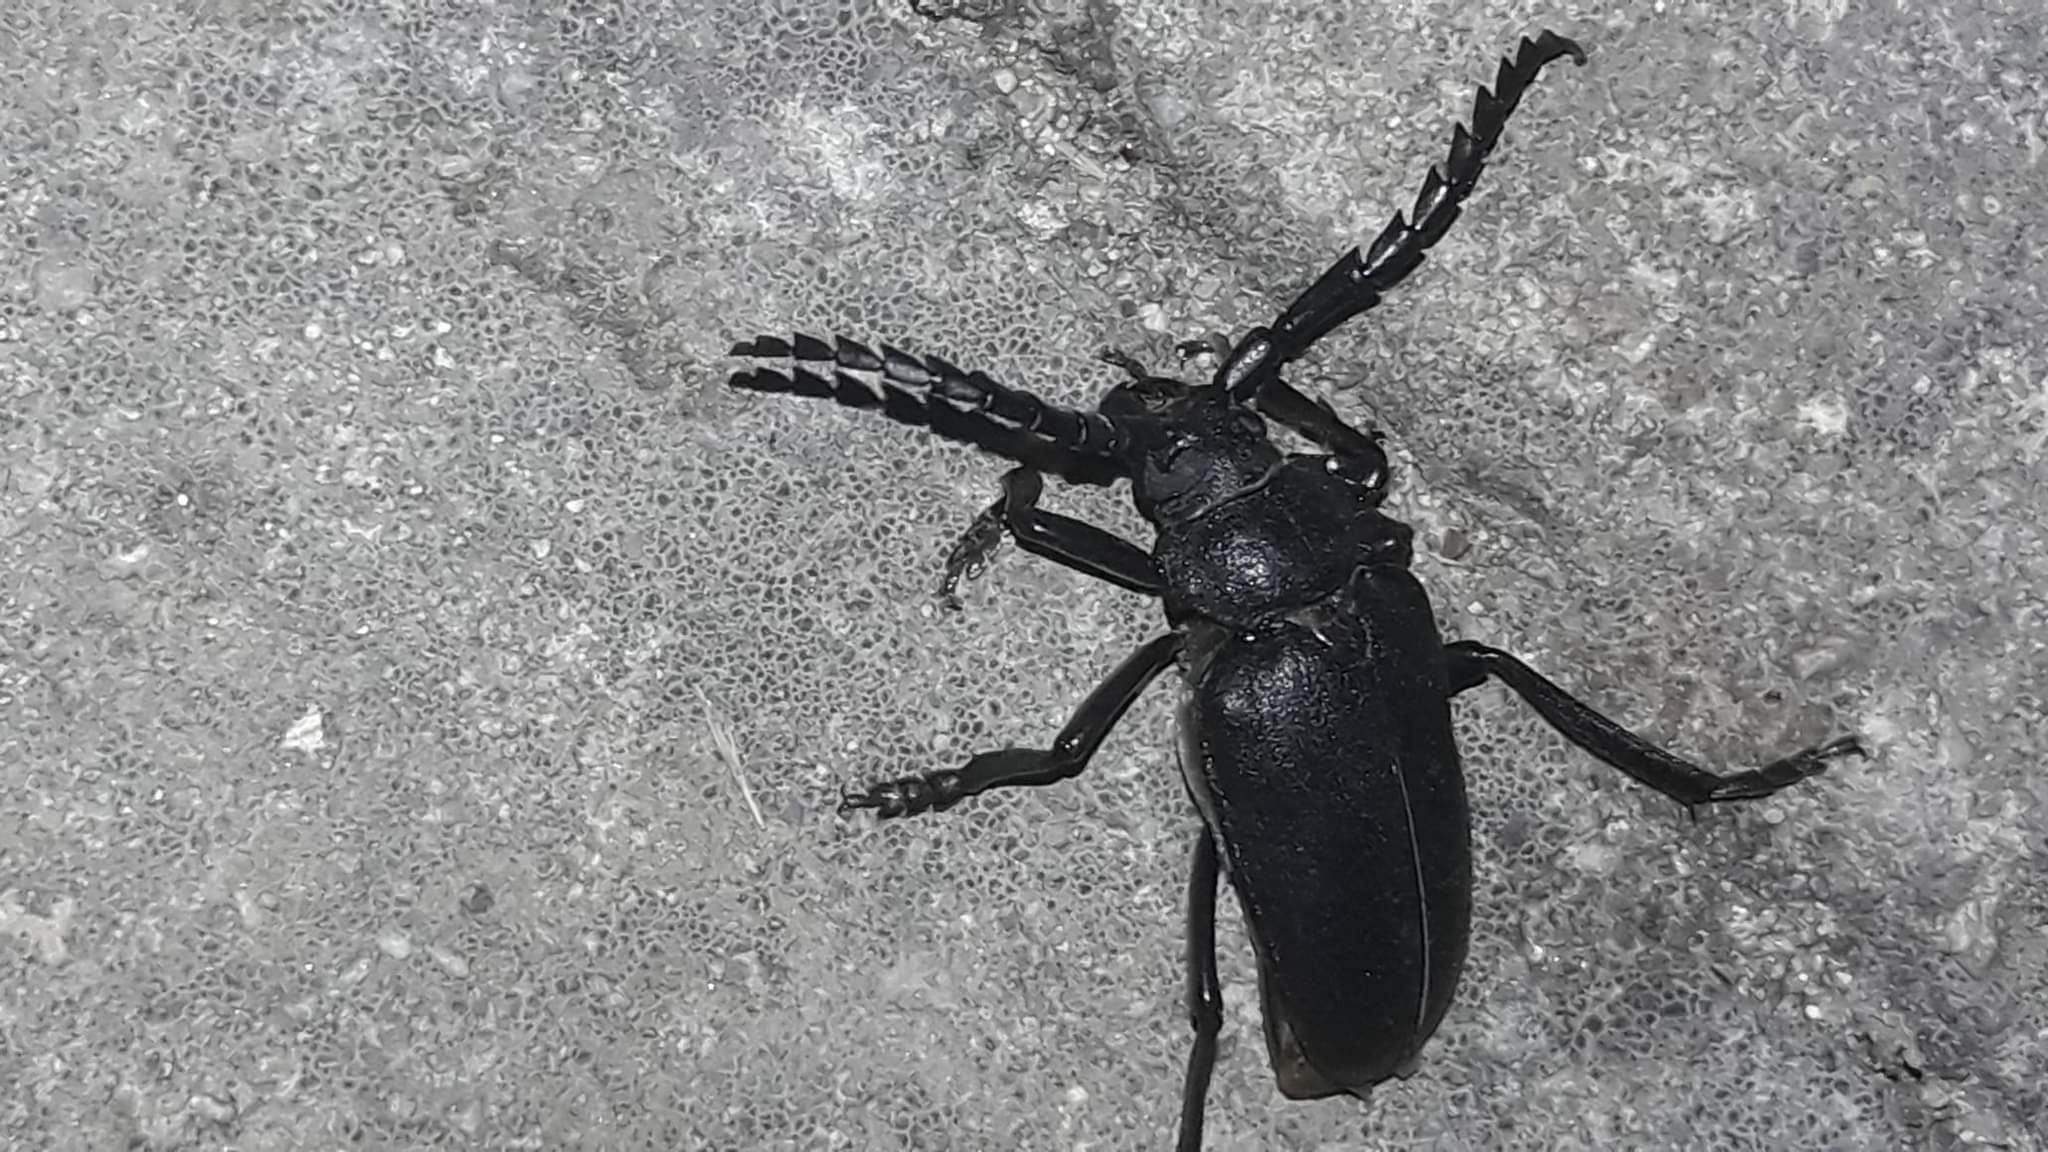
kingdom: Animalia
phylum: Arthropoda
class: Insecta
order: Coleoptera
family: Cerambycidae
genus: Prionus
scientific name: Prionus coriarius
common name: Tanner beetle
